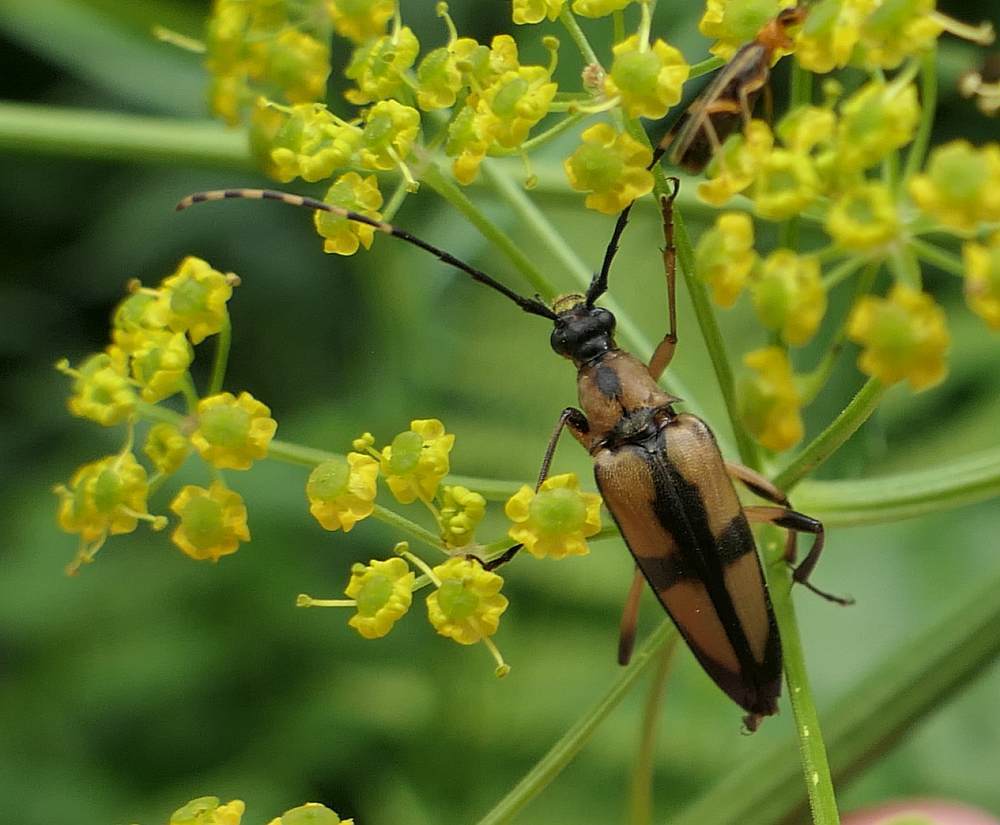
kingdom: Animalia
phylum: Arthropoda
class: Insecta
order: Coleoptera
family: Cerambycidae
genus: Etorofus
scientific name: Etorofus
